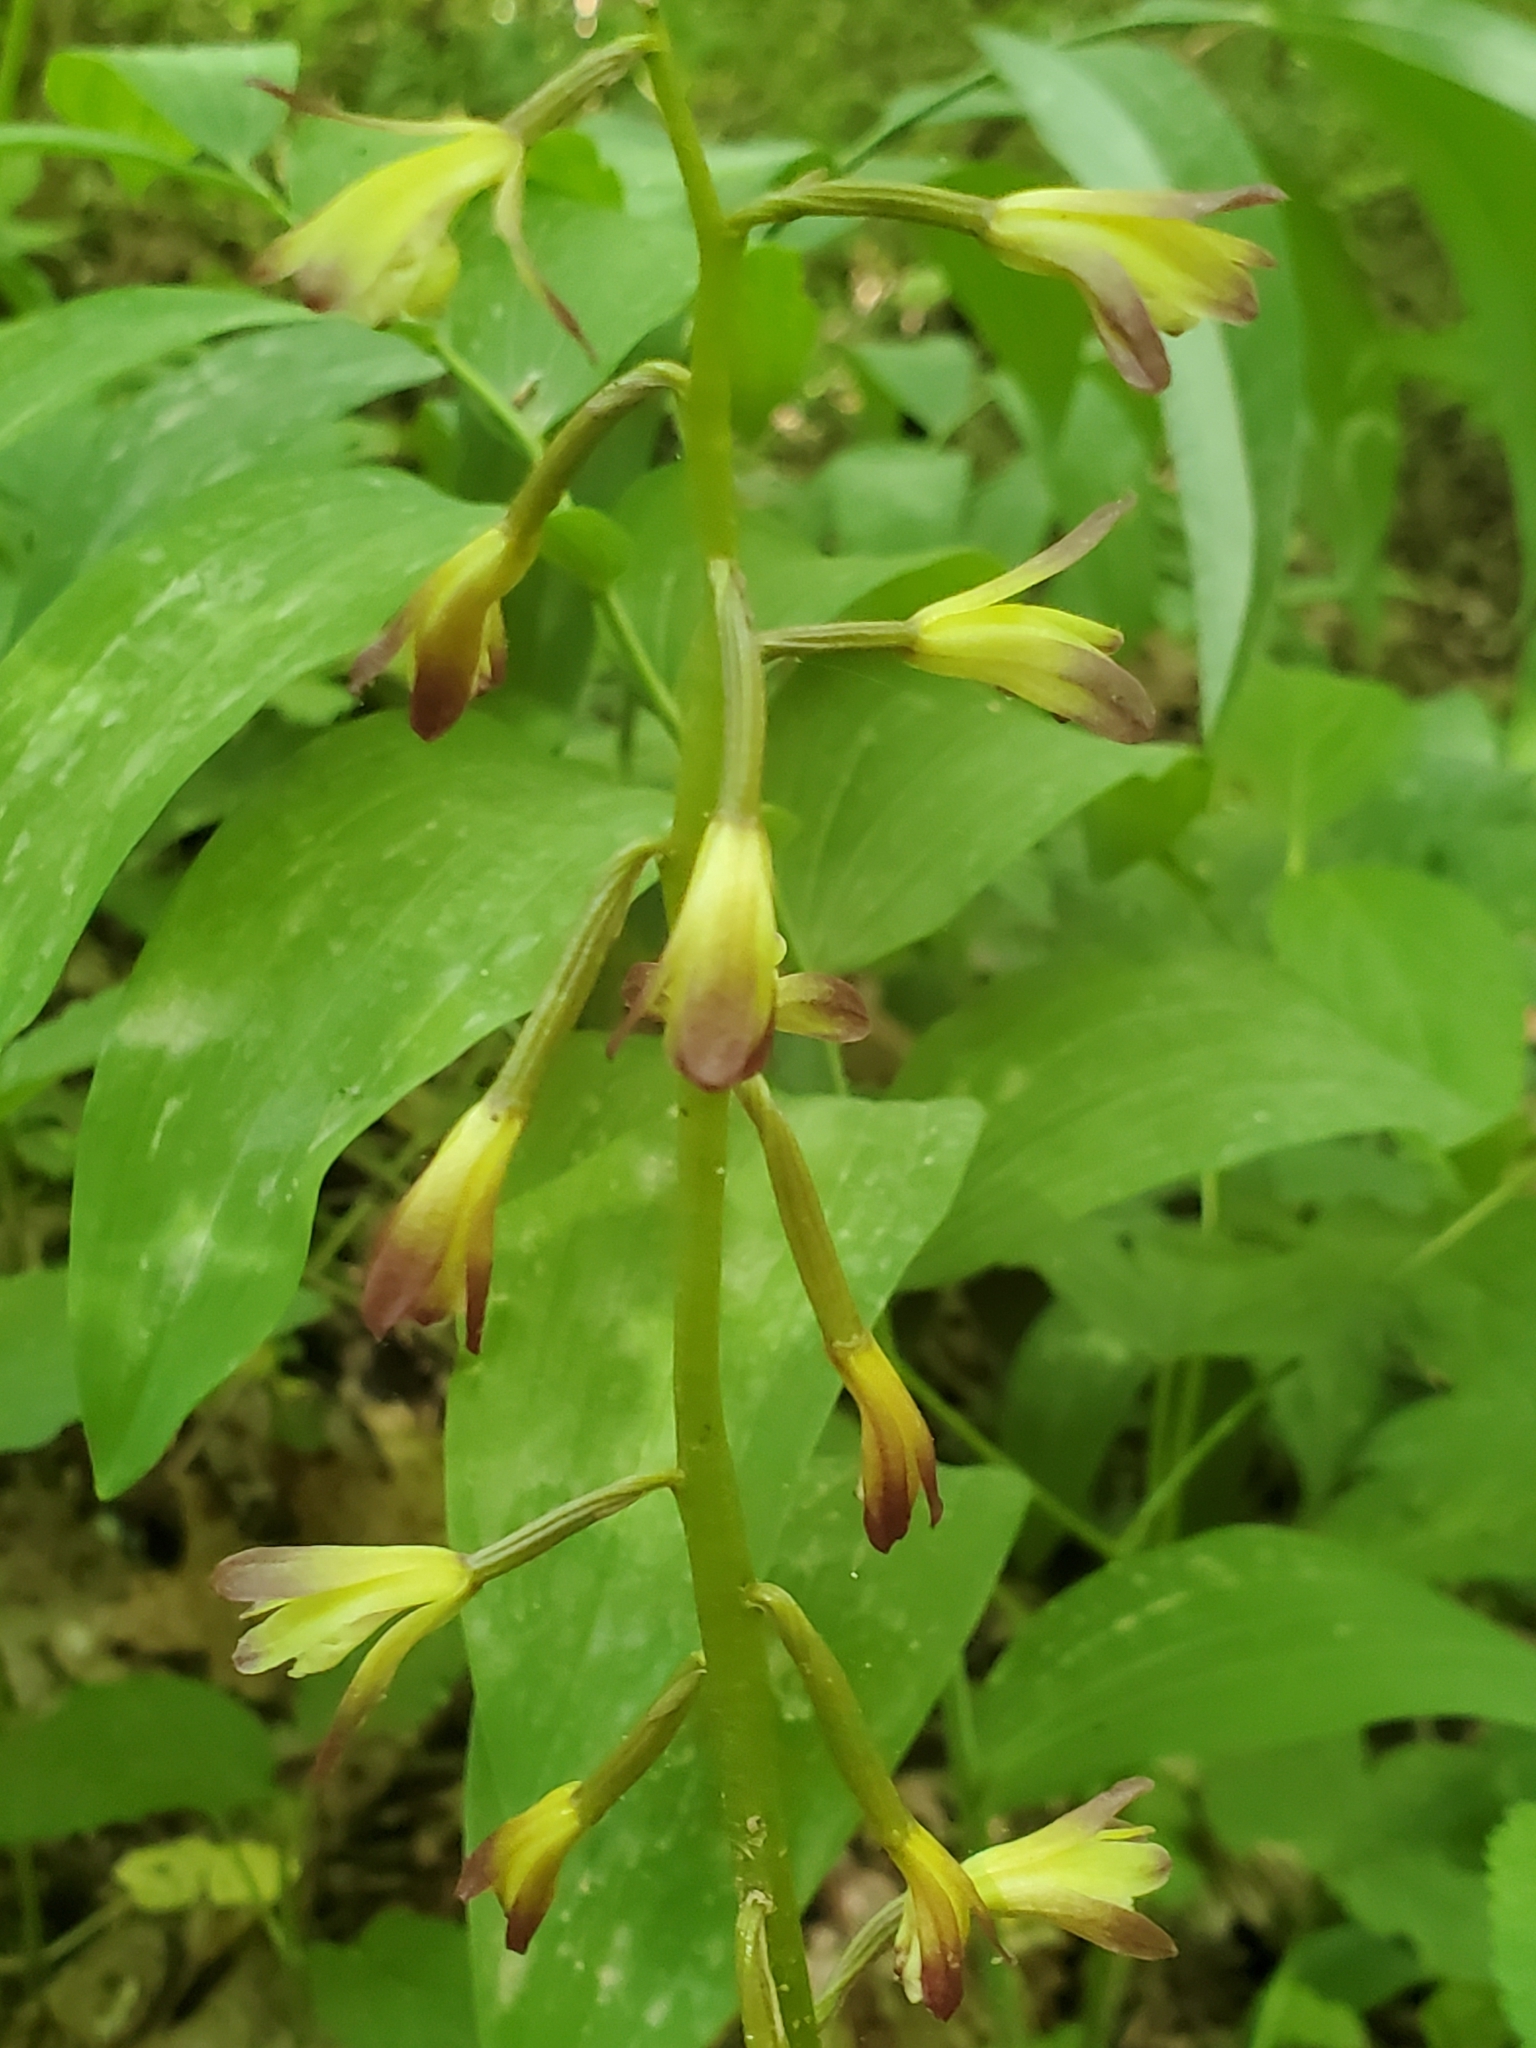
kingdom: Plantae
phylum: Tracheophyta
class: Liliopsida
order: Asparagales
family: Orchidaceae
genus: Aplectrum
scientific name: Aplectrum hyemale
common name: Adam-and-eve
